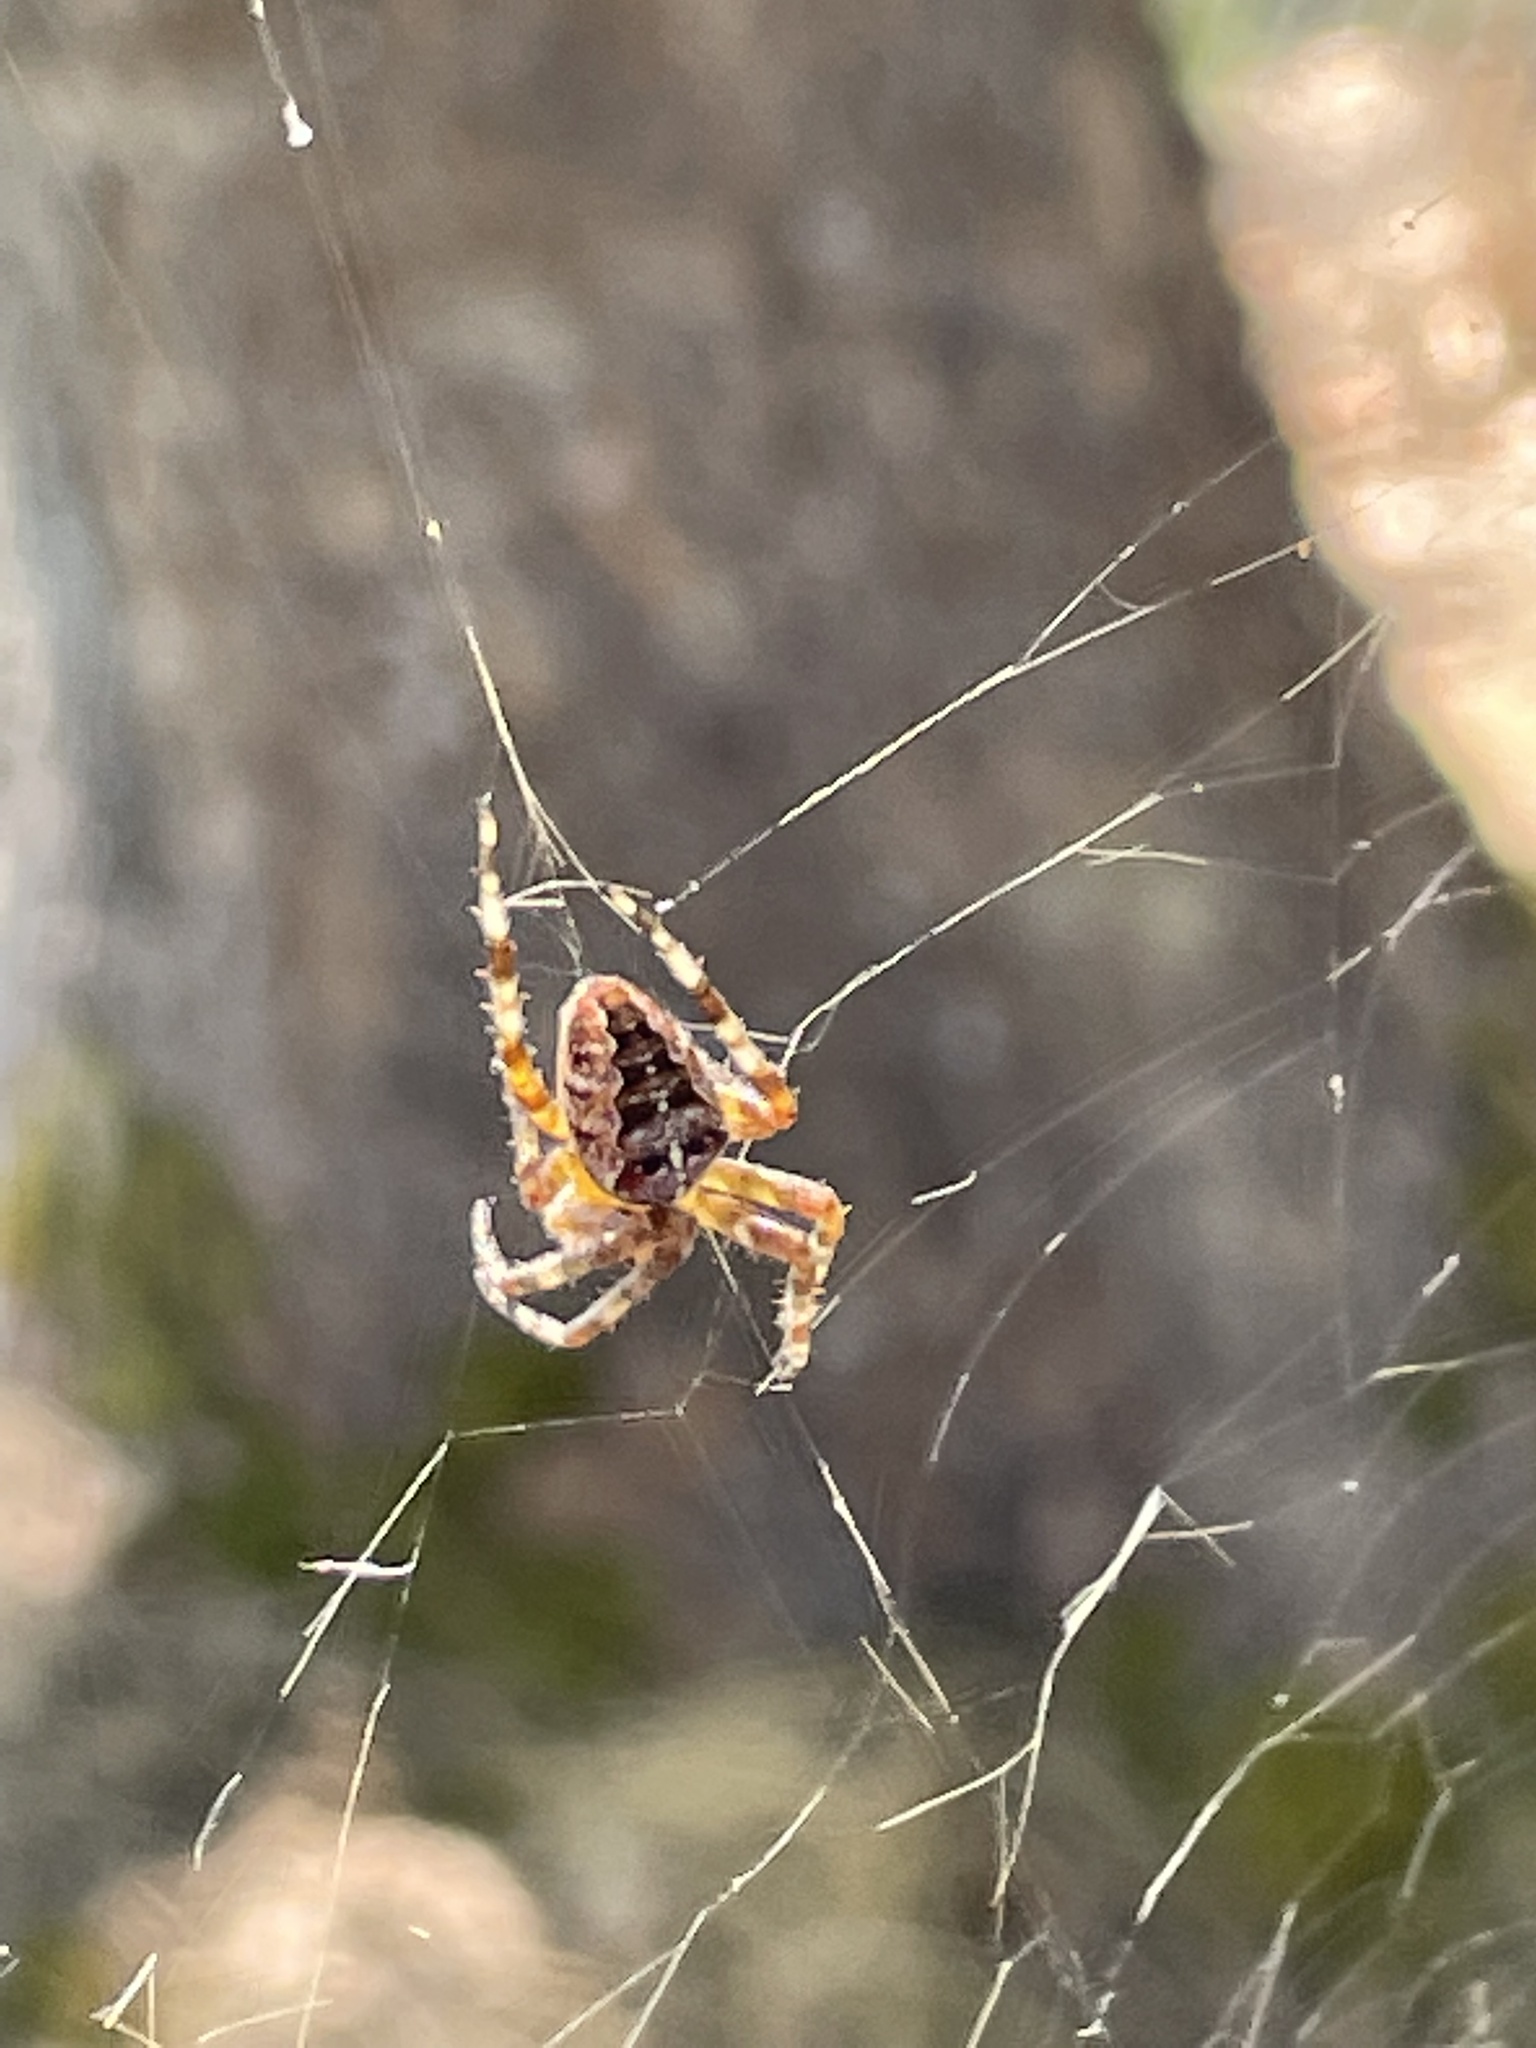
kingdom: Animalia
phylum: Arthropoda
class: Arachnida
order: Araneae
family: Araneidae
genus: Araneus
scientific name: Araneus diadematus
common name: Cross orbweaver
